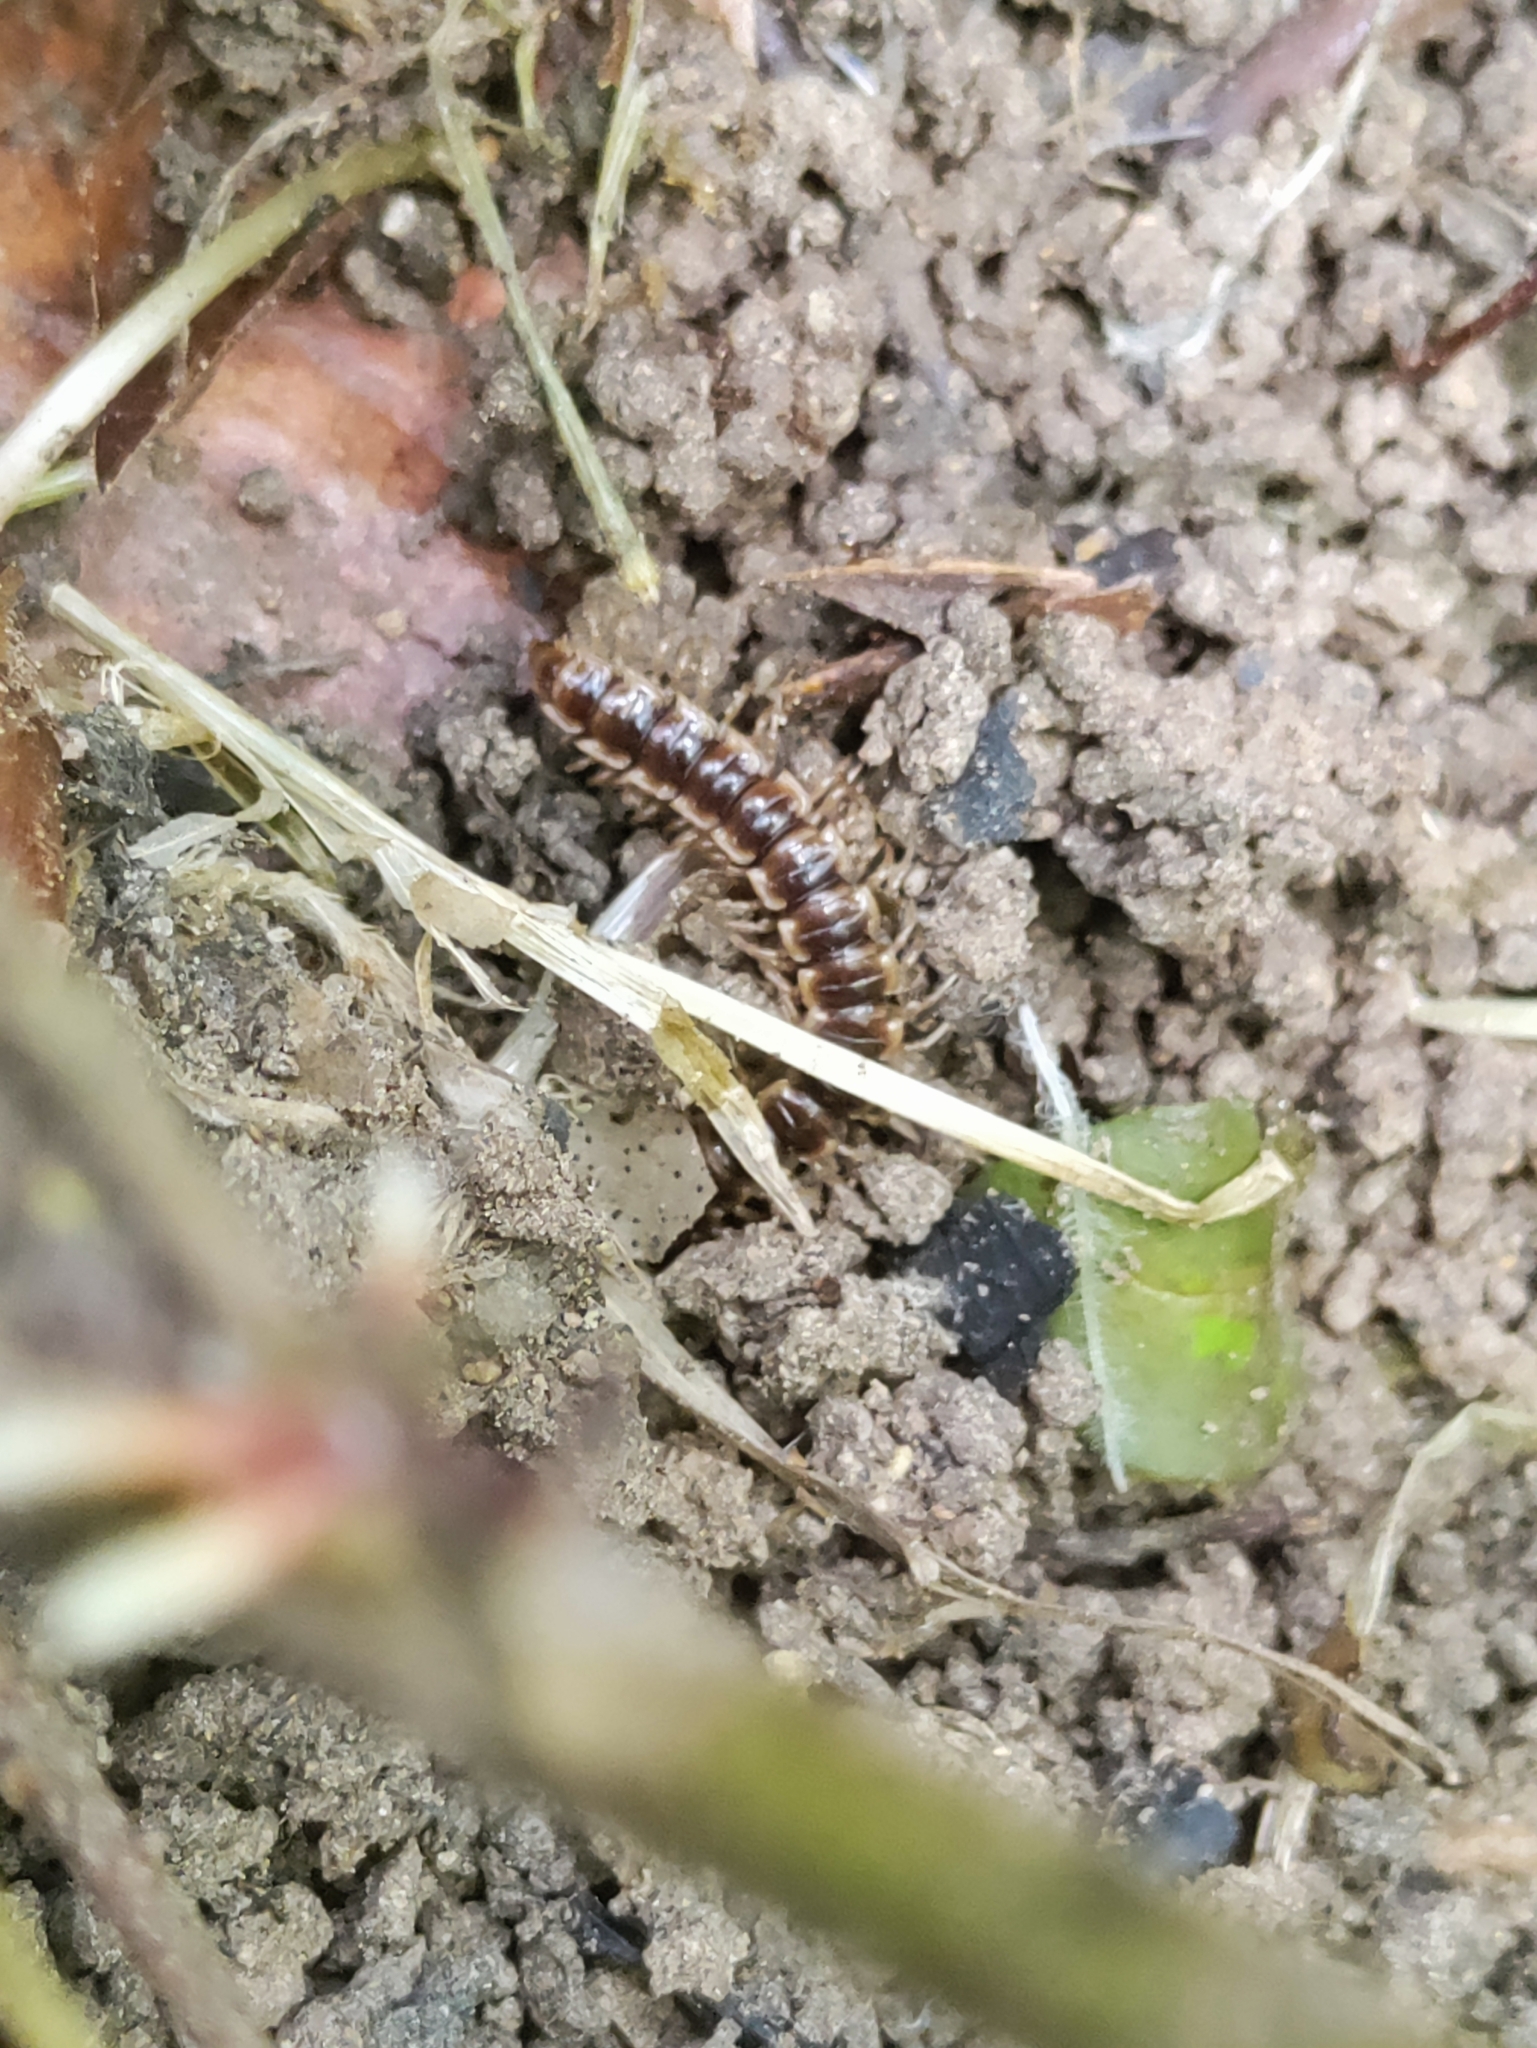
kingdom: Animalia
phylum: Arthropoda
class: Diplopoda
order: Polydesmida
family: Paradoxosomatidae
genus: Oxidus
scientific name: Oxidus gracilis
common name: Greenhouse millipede
